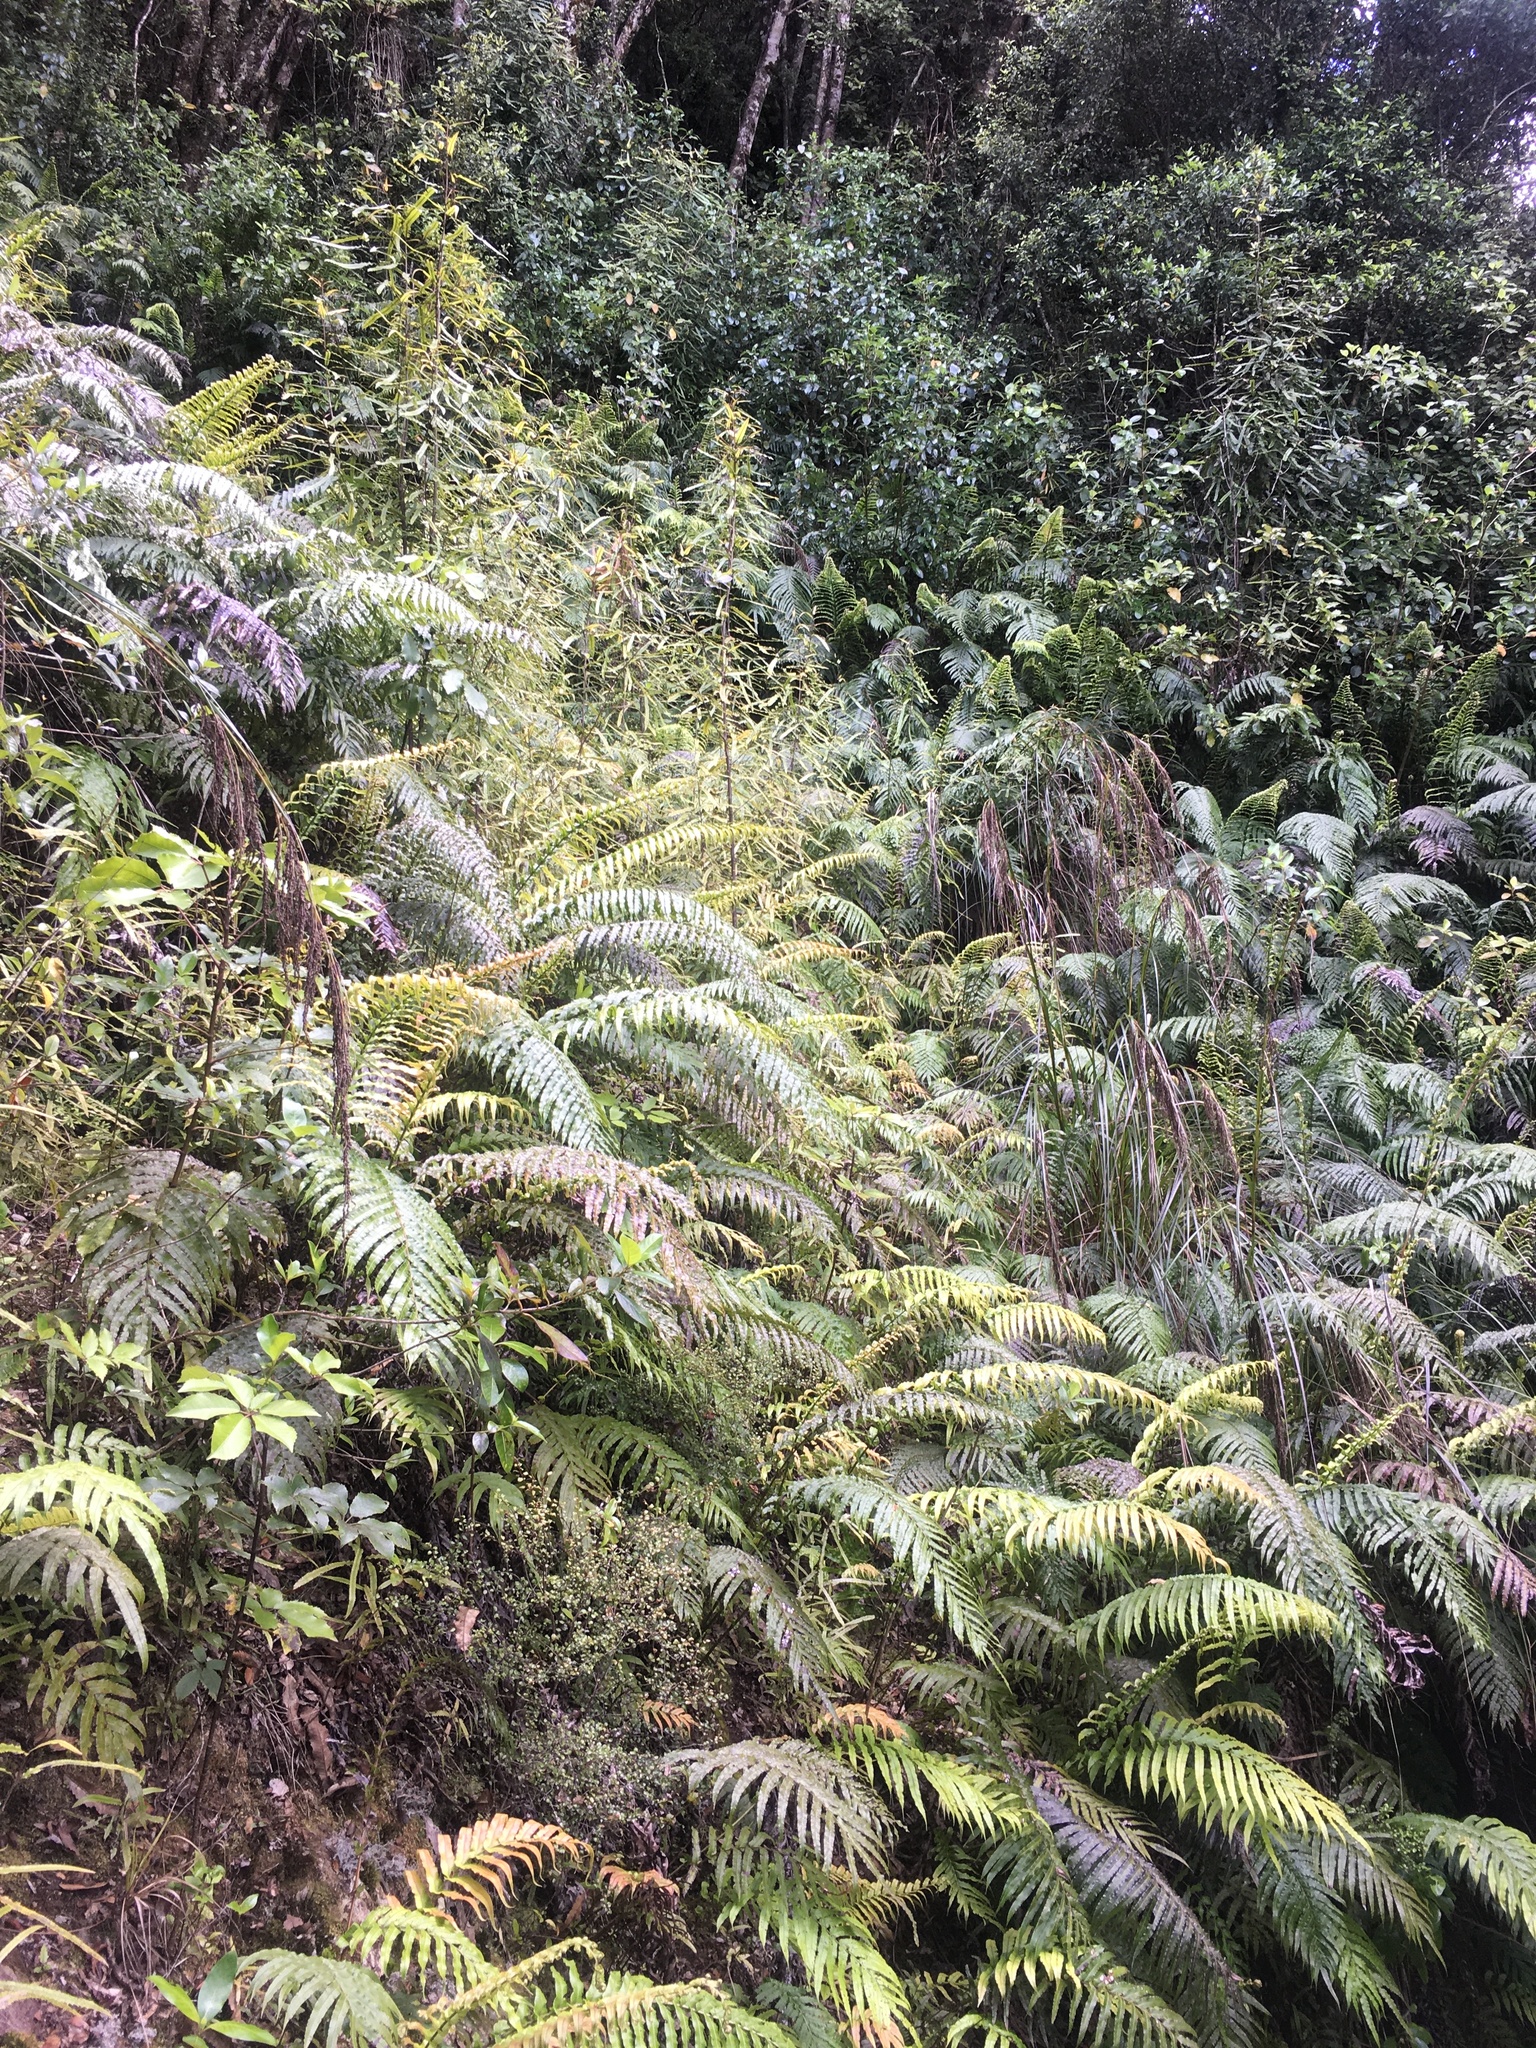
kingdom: Plantae
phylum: Tracheophyta
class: Magnoliopsida
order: Proteales
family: Proteaceae
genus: Knightia
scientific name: Knightia excelsa
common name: New zealand-honeysuckle
